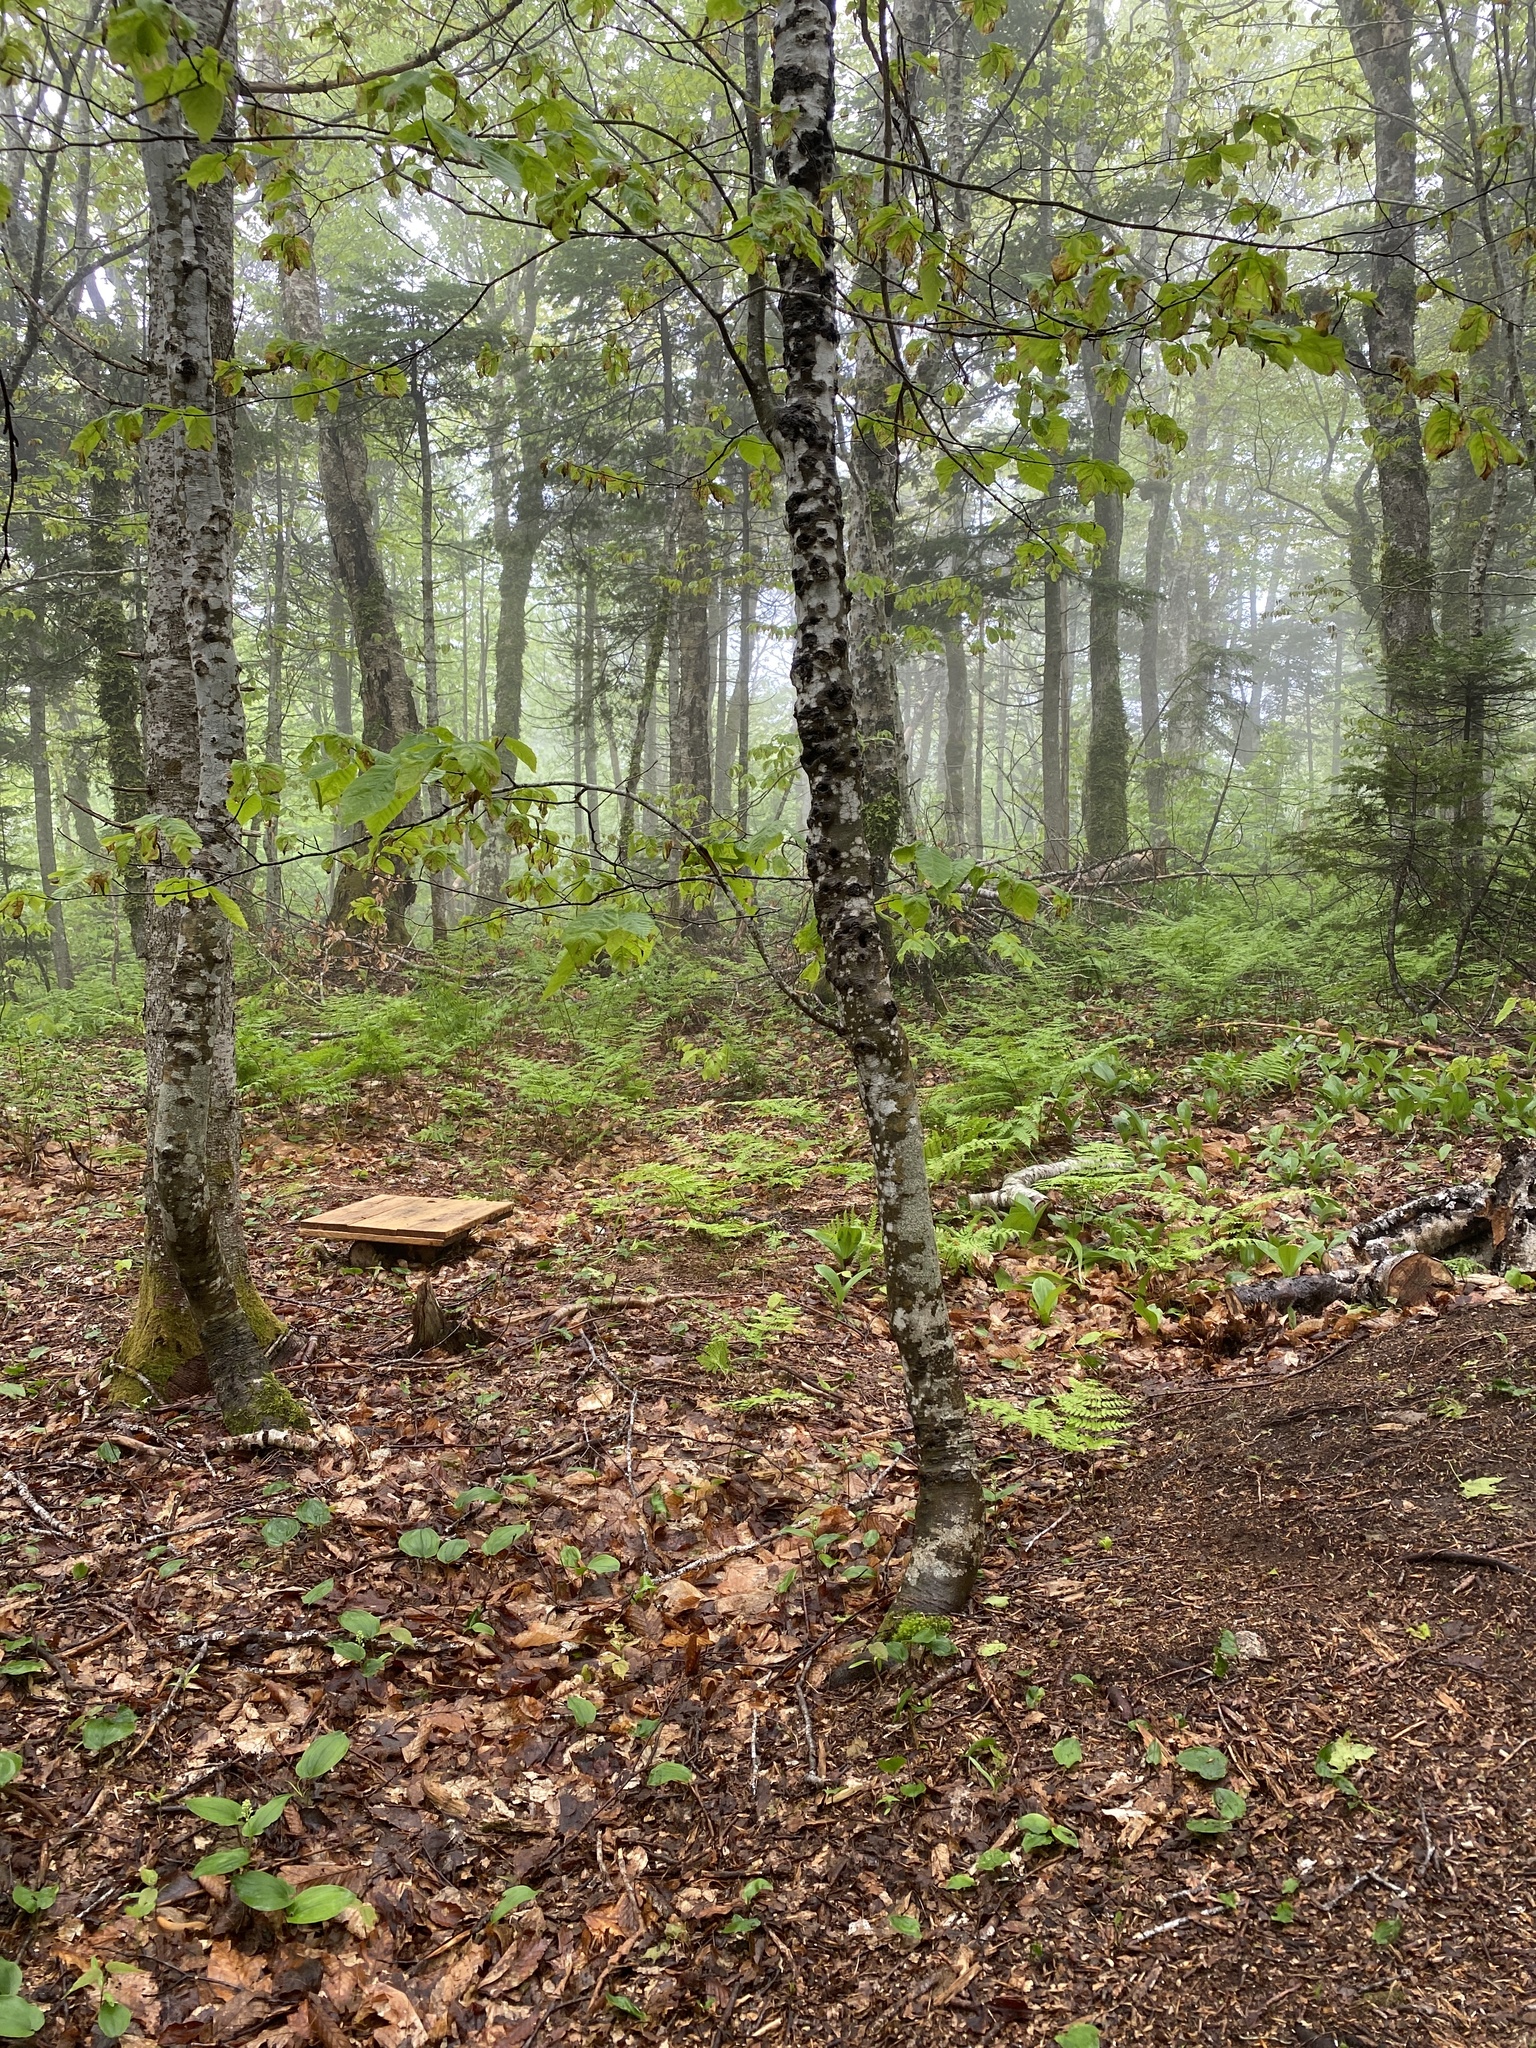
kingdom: Plantae
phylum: Tracheophyta
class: Magnoliopsida
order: Fagales
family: Fagaceae
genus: Fagus
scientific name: Fagus grandifolia
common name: American beech
